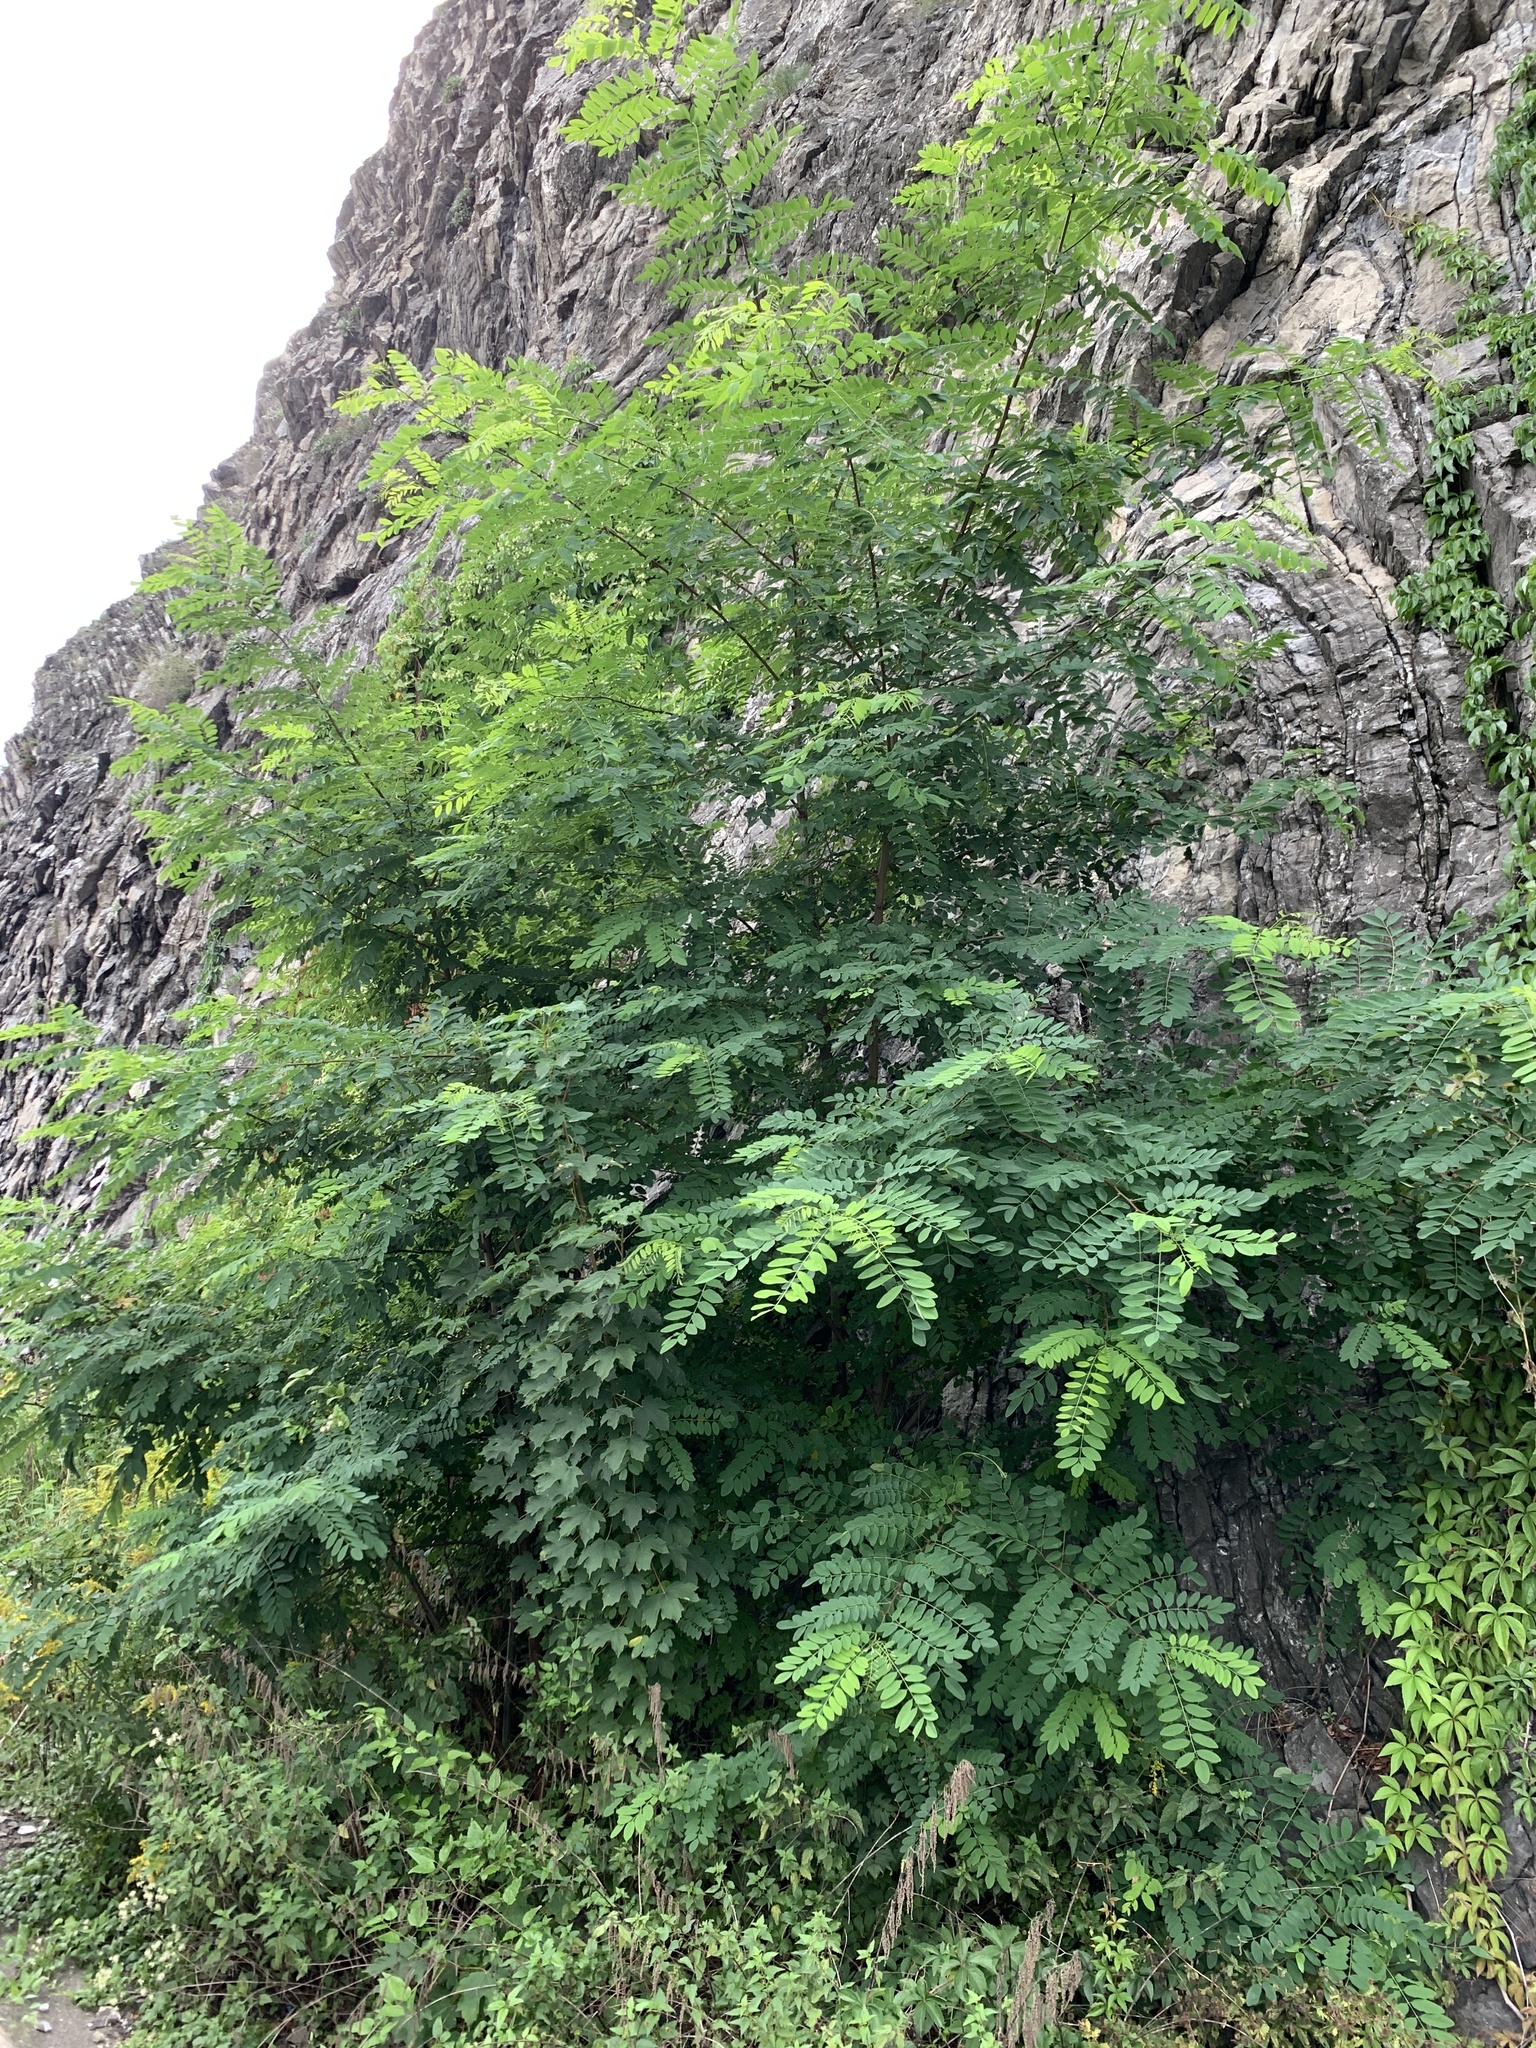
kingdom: Plantae
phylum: Tracheophyta
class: Magnoliopsida
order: Fabales
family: Fabaceae
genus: Robinia
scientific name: Robinia pseudoacacia
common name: Black locust
